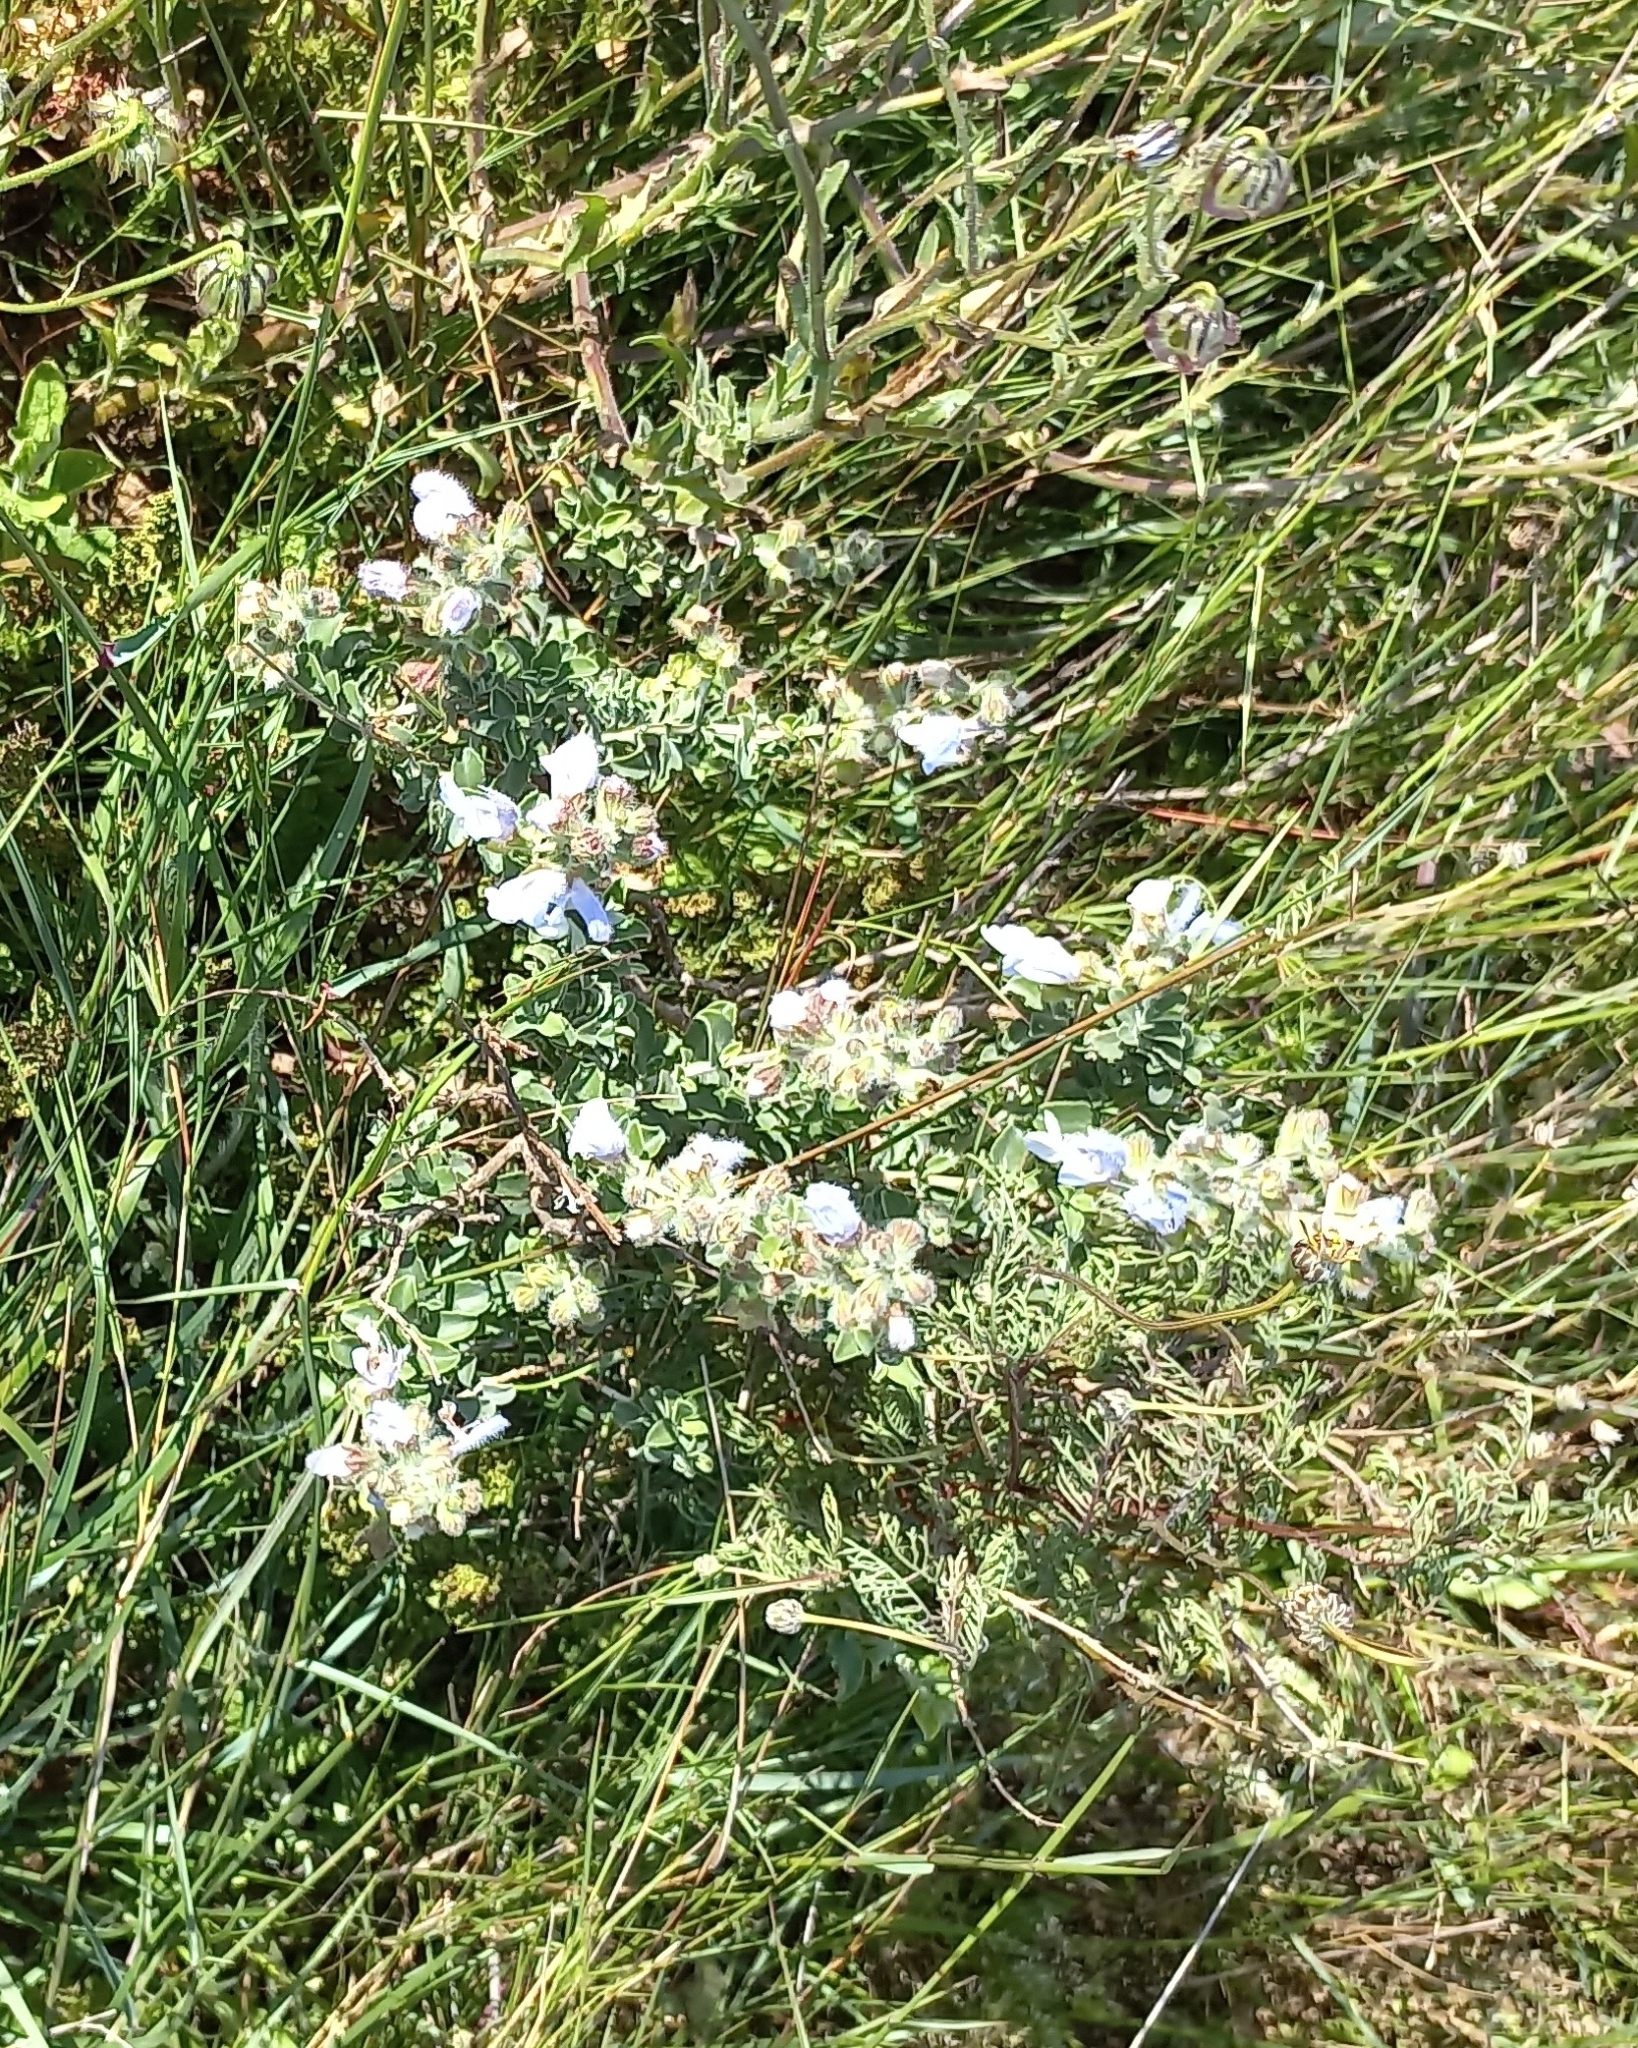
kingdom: Plantae
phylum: Tracheophyta
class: Magnoliopsida
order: Lamiales
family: Lamiaceae
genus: Salvia
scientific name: Salvia africana
